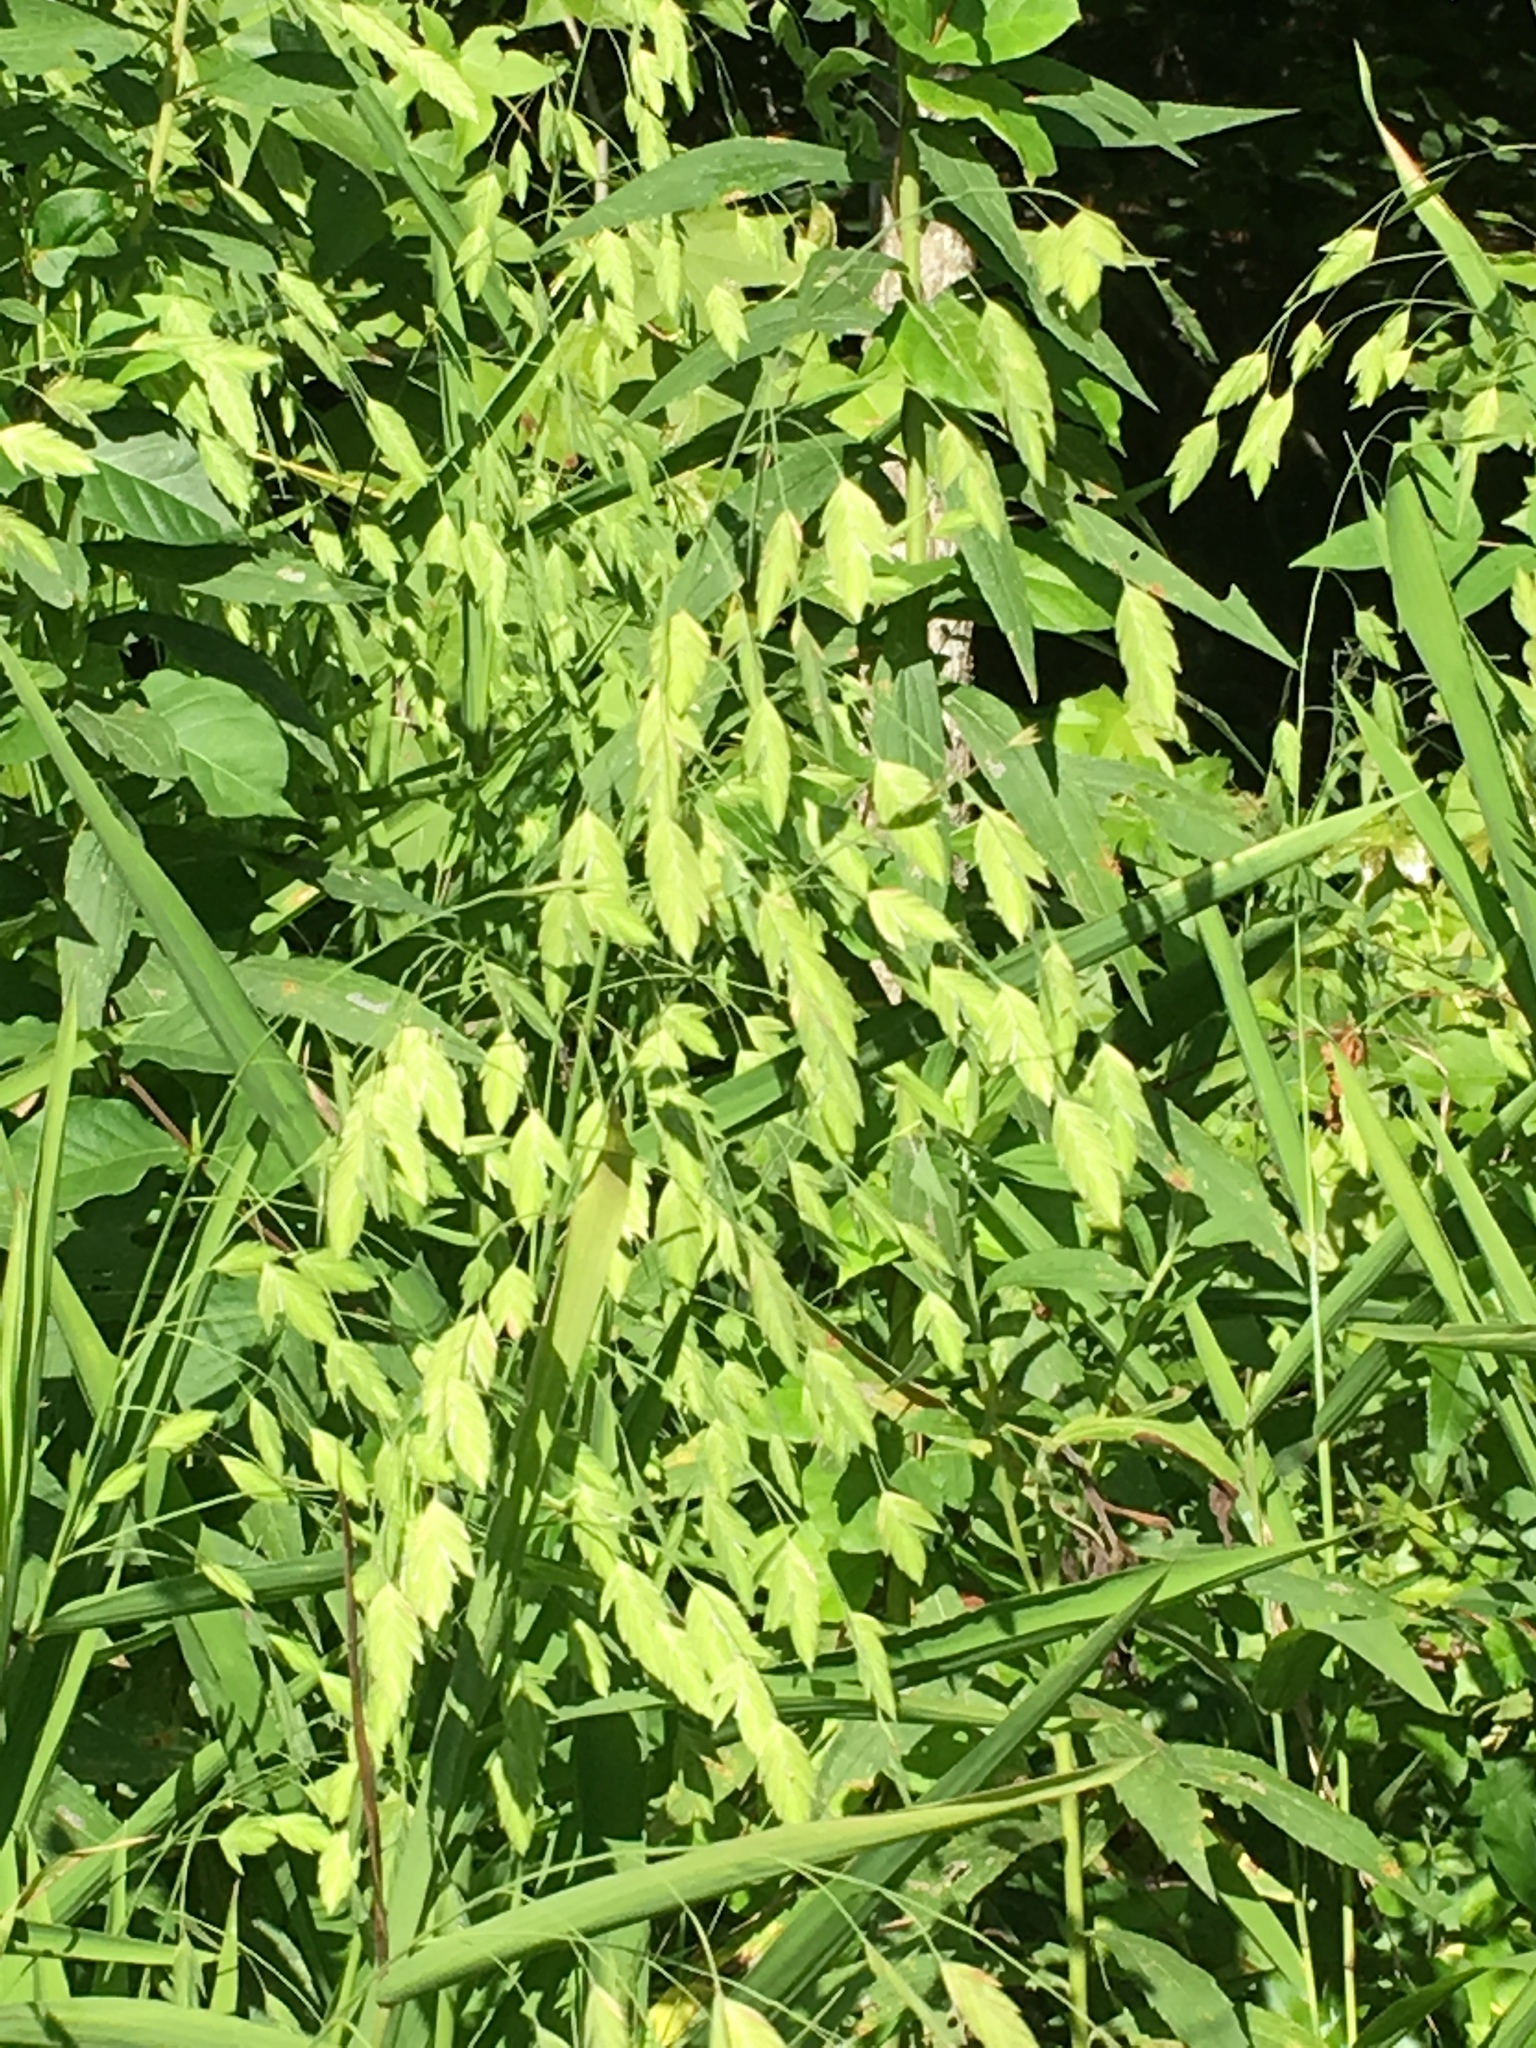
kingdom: Plantae
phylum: Tracheophyta
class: Liliopsida
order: Poales
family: Poaceae
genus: Chasmanthium
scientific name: Chasmanthium latifolium
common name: Broad-leaved chasmanthium
